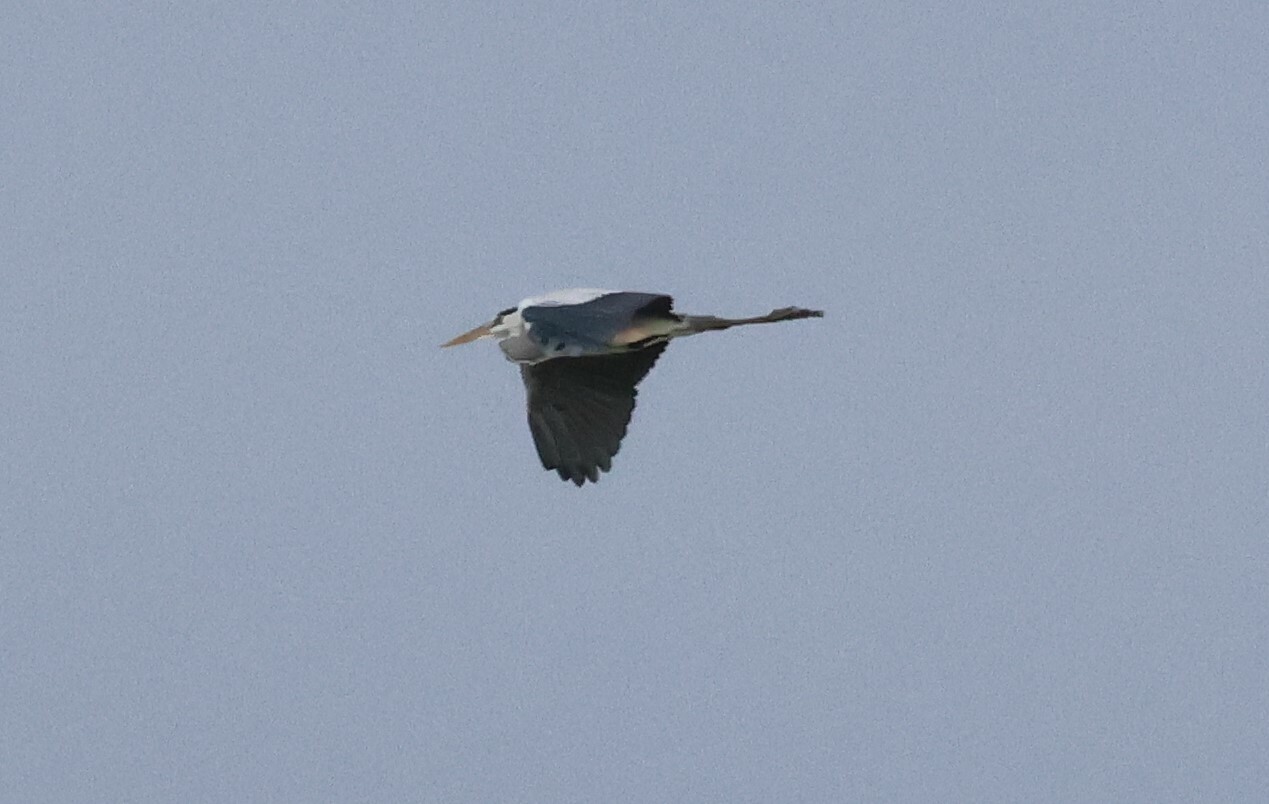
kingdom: Animalia
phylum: Chordata
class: Aves
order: Pelecaniformes
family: Ardeidae
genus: Ardea
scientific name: Ardea cinerea
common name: Grey heron
